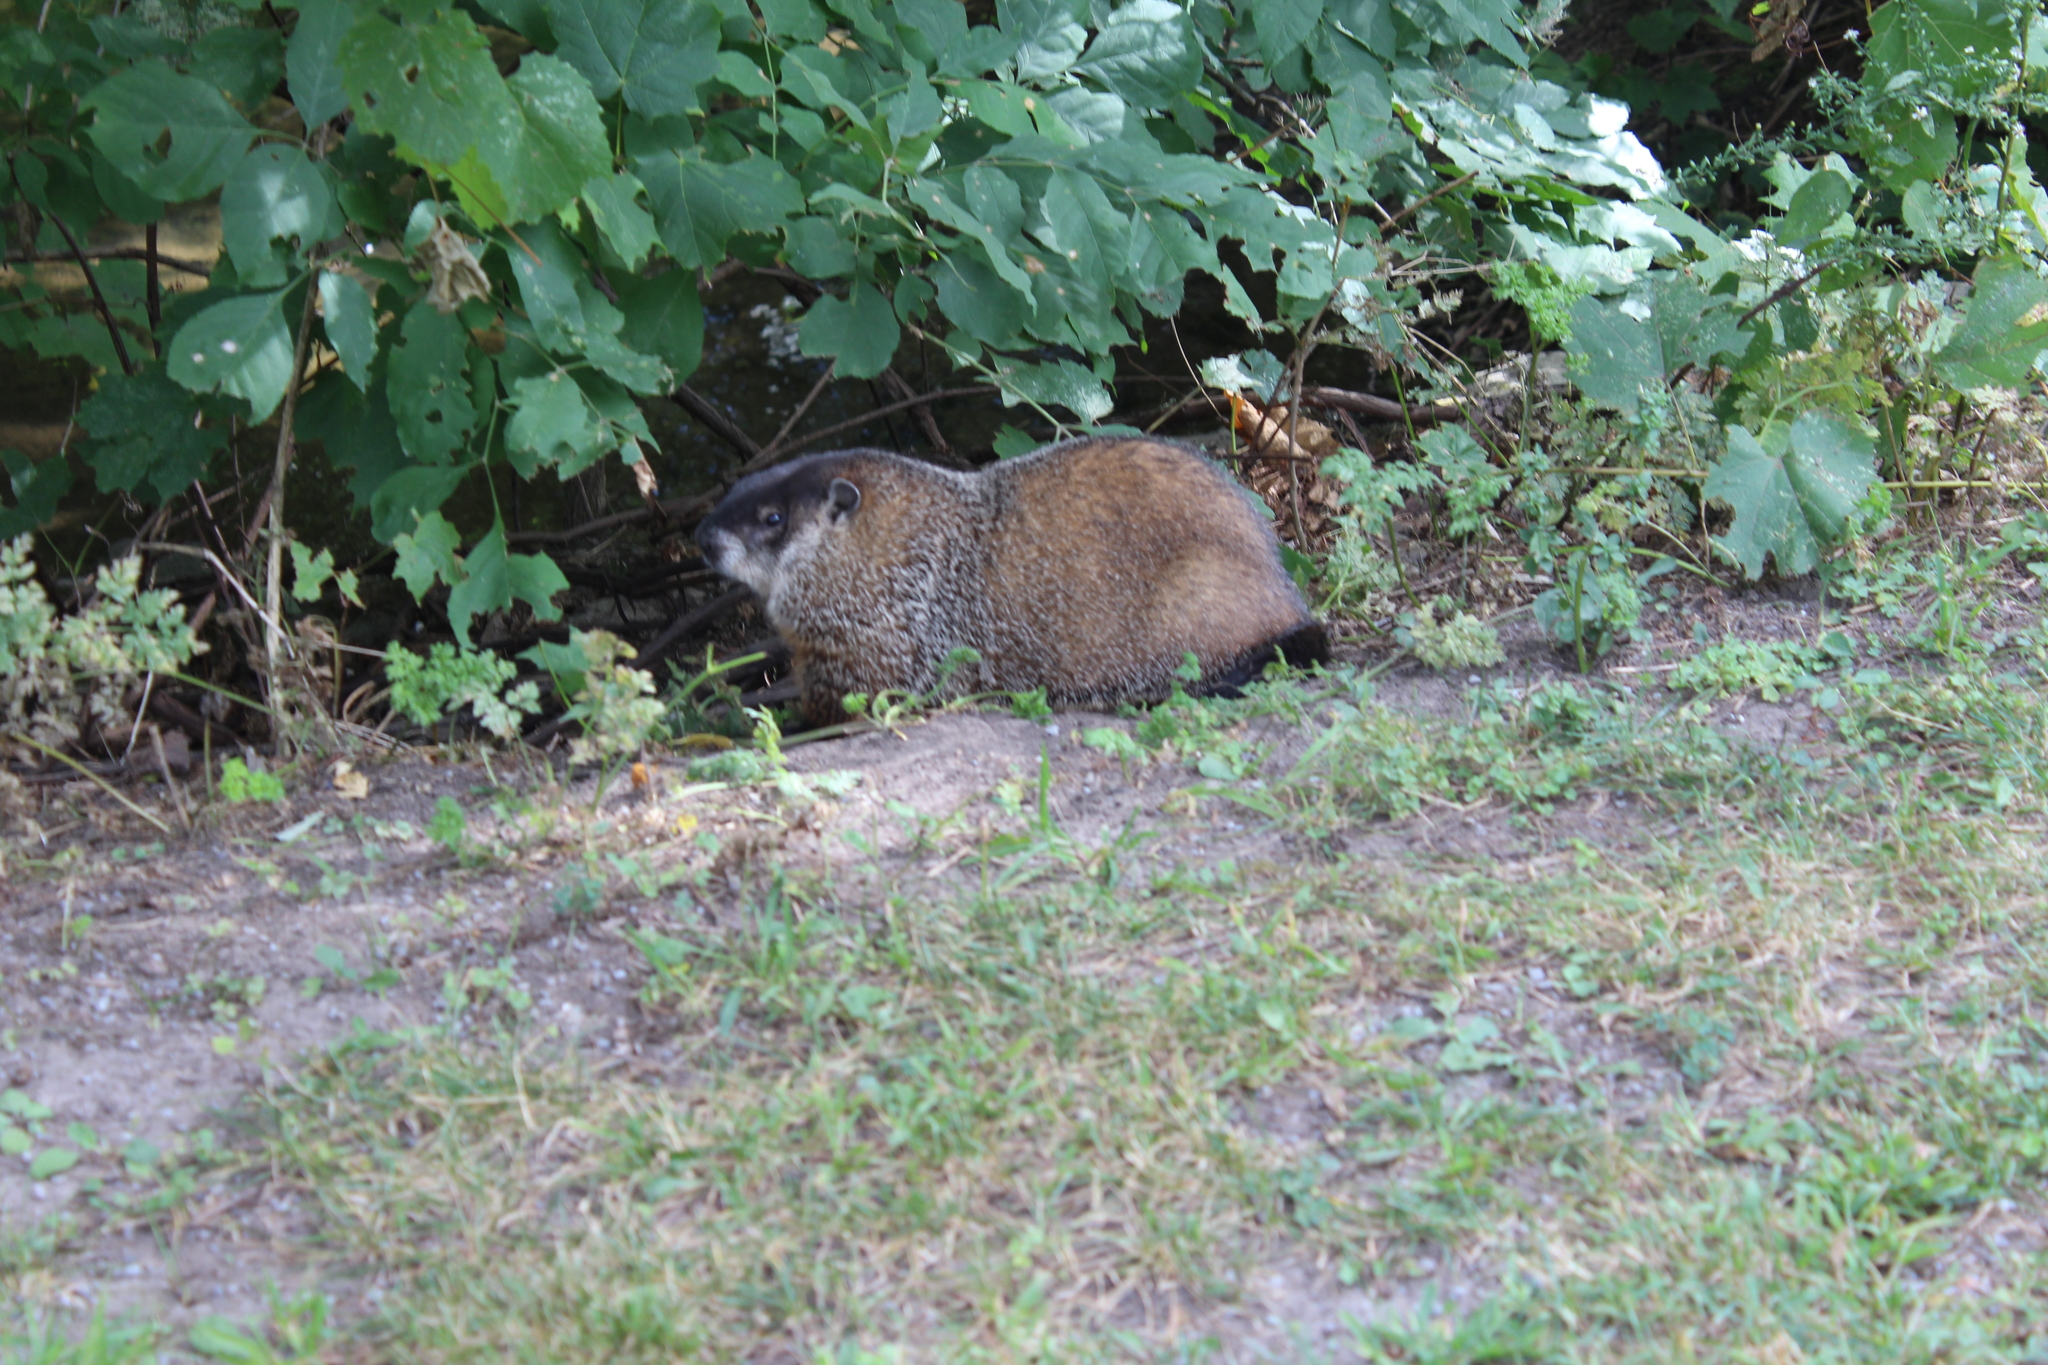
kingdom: Animalia
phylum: Chordata
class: Mammalia
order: Rodentia
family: Sciuridae
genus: Marmota
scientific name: Marmota monax
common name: Groundhog
